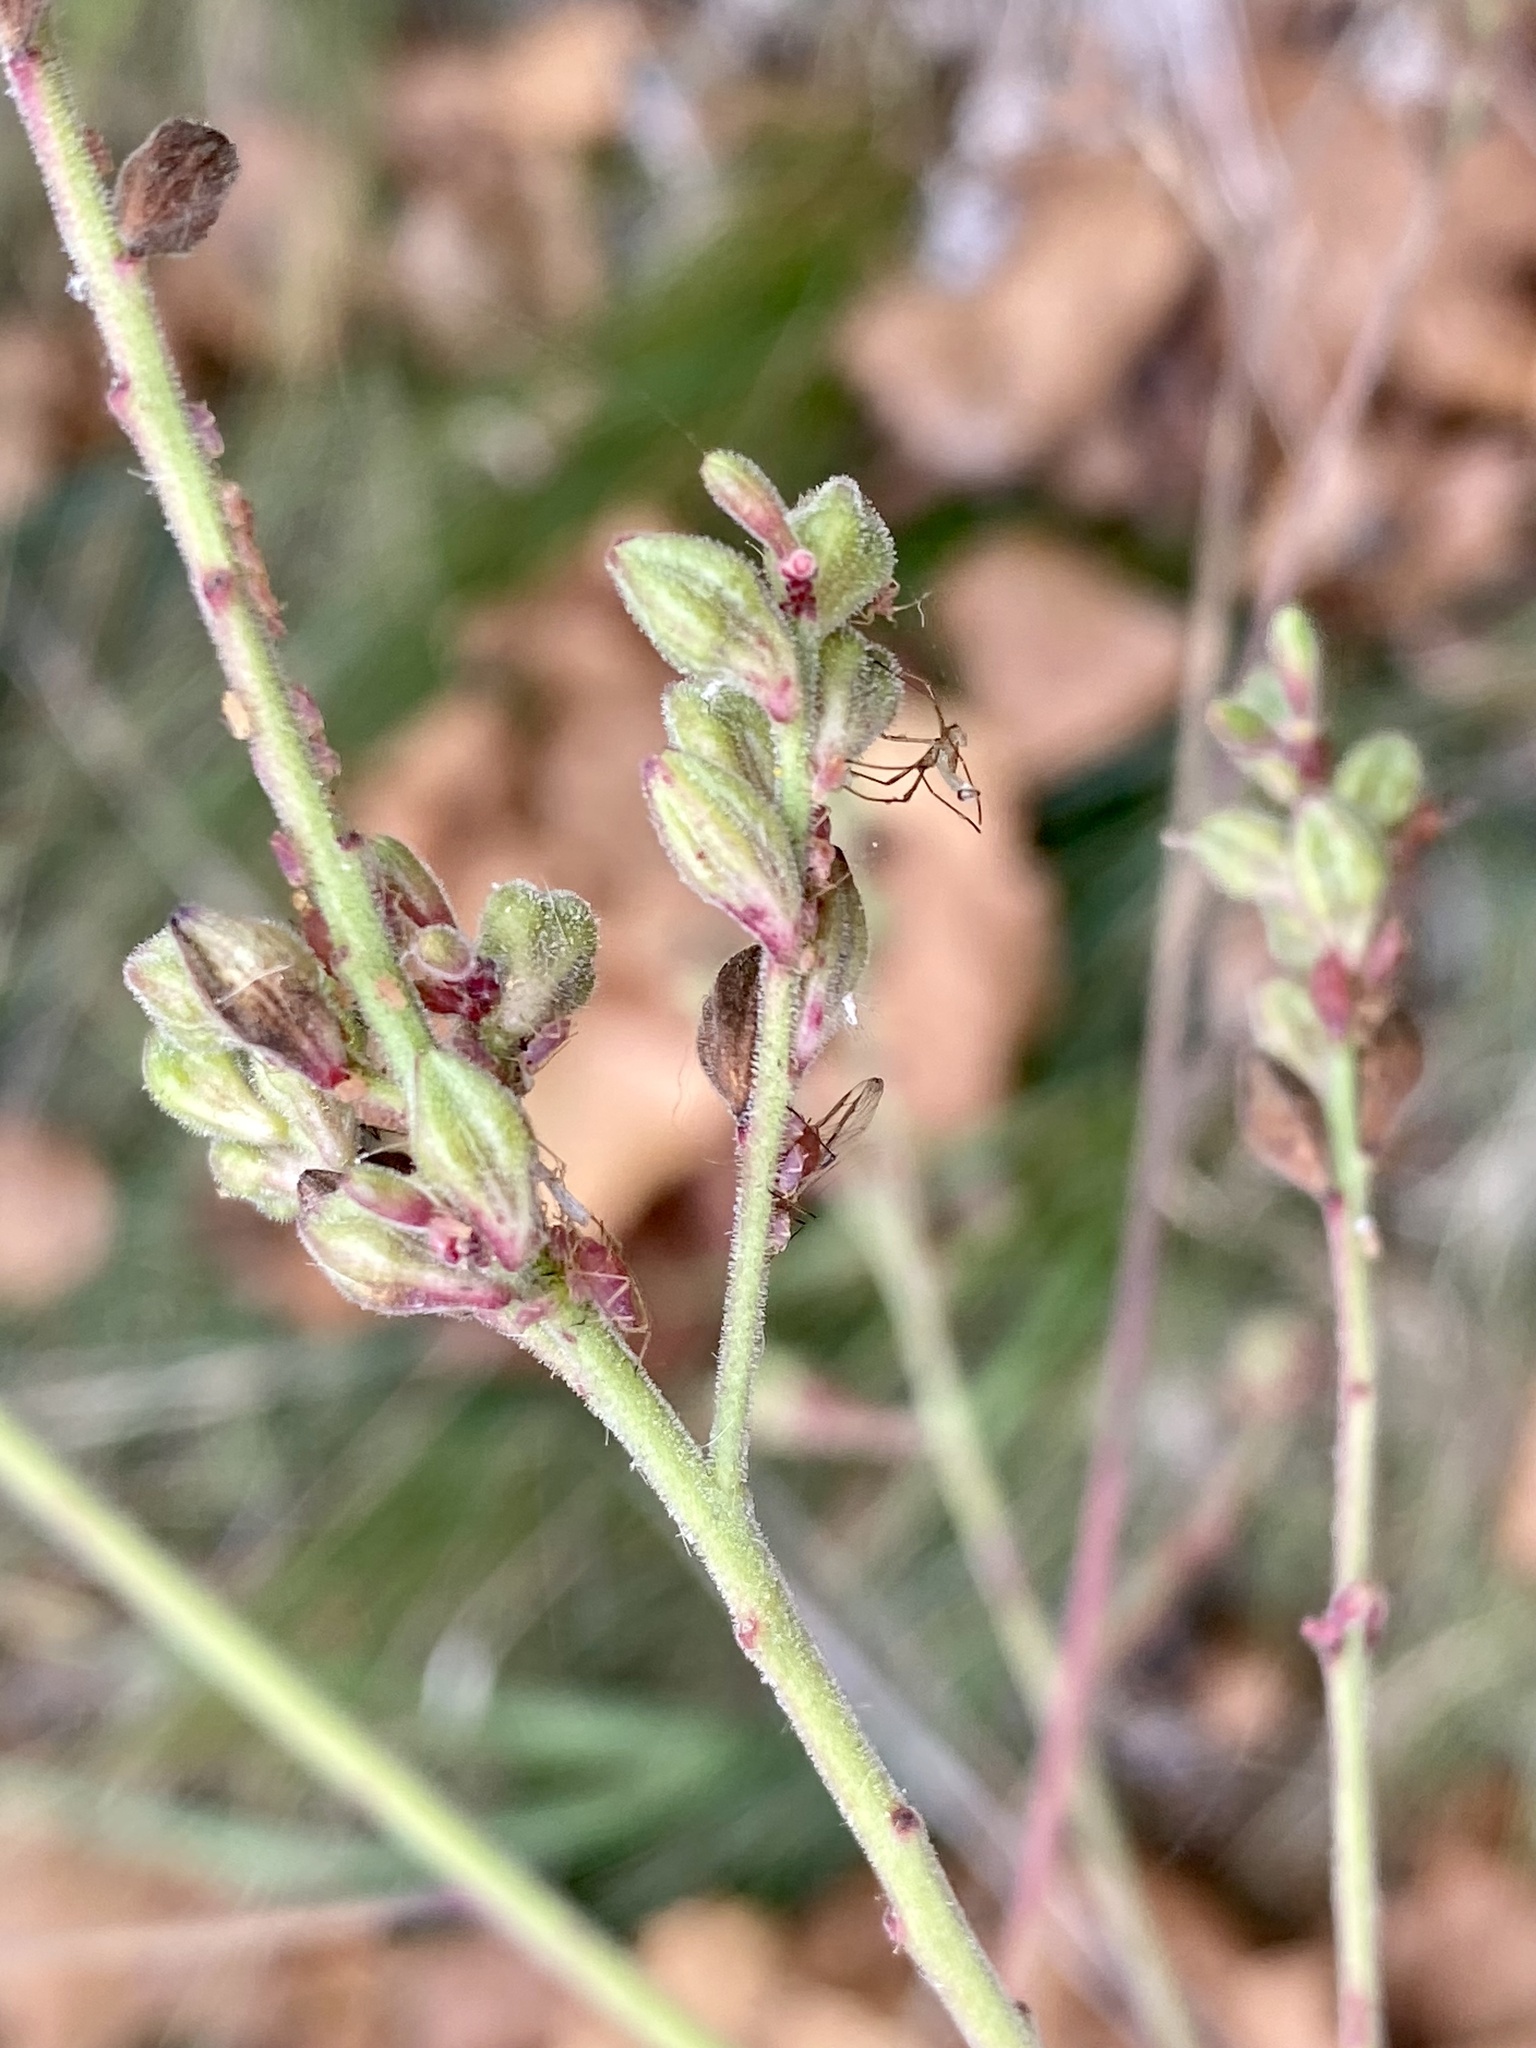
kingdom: Plantae
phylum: Tracheophyta
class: Magnoliopsida
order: Myrtales
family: Onagraceae
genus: Oenothera
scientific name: Oenothera gaura
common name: Biennial beeblossom
